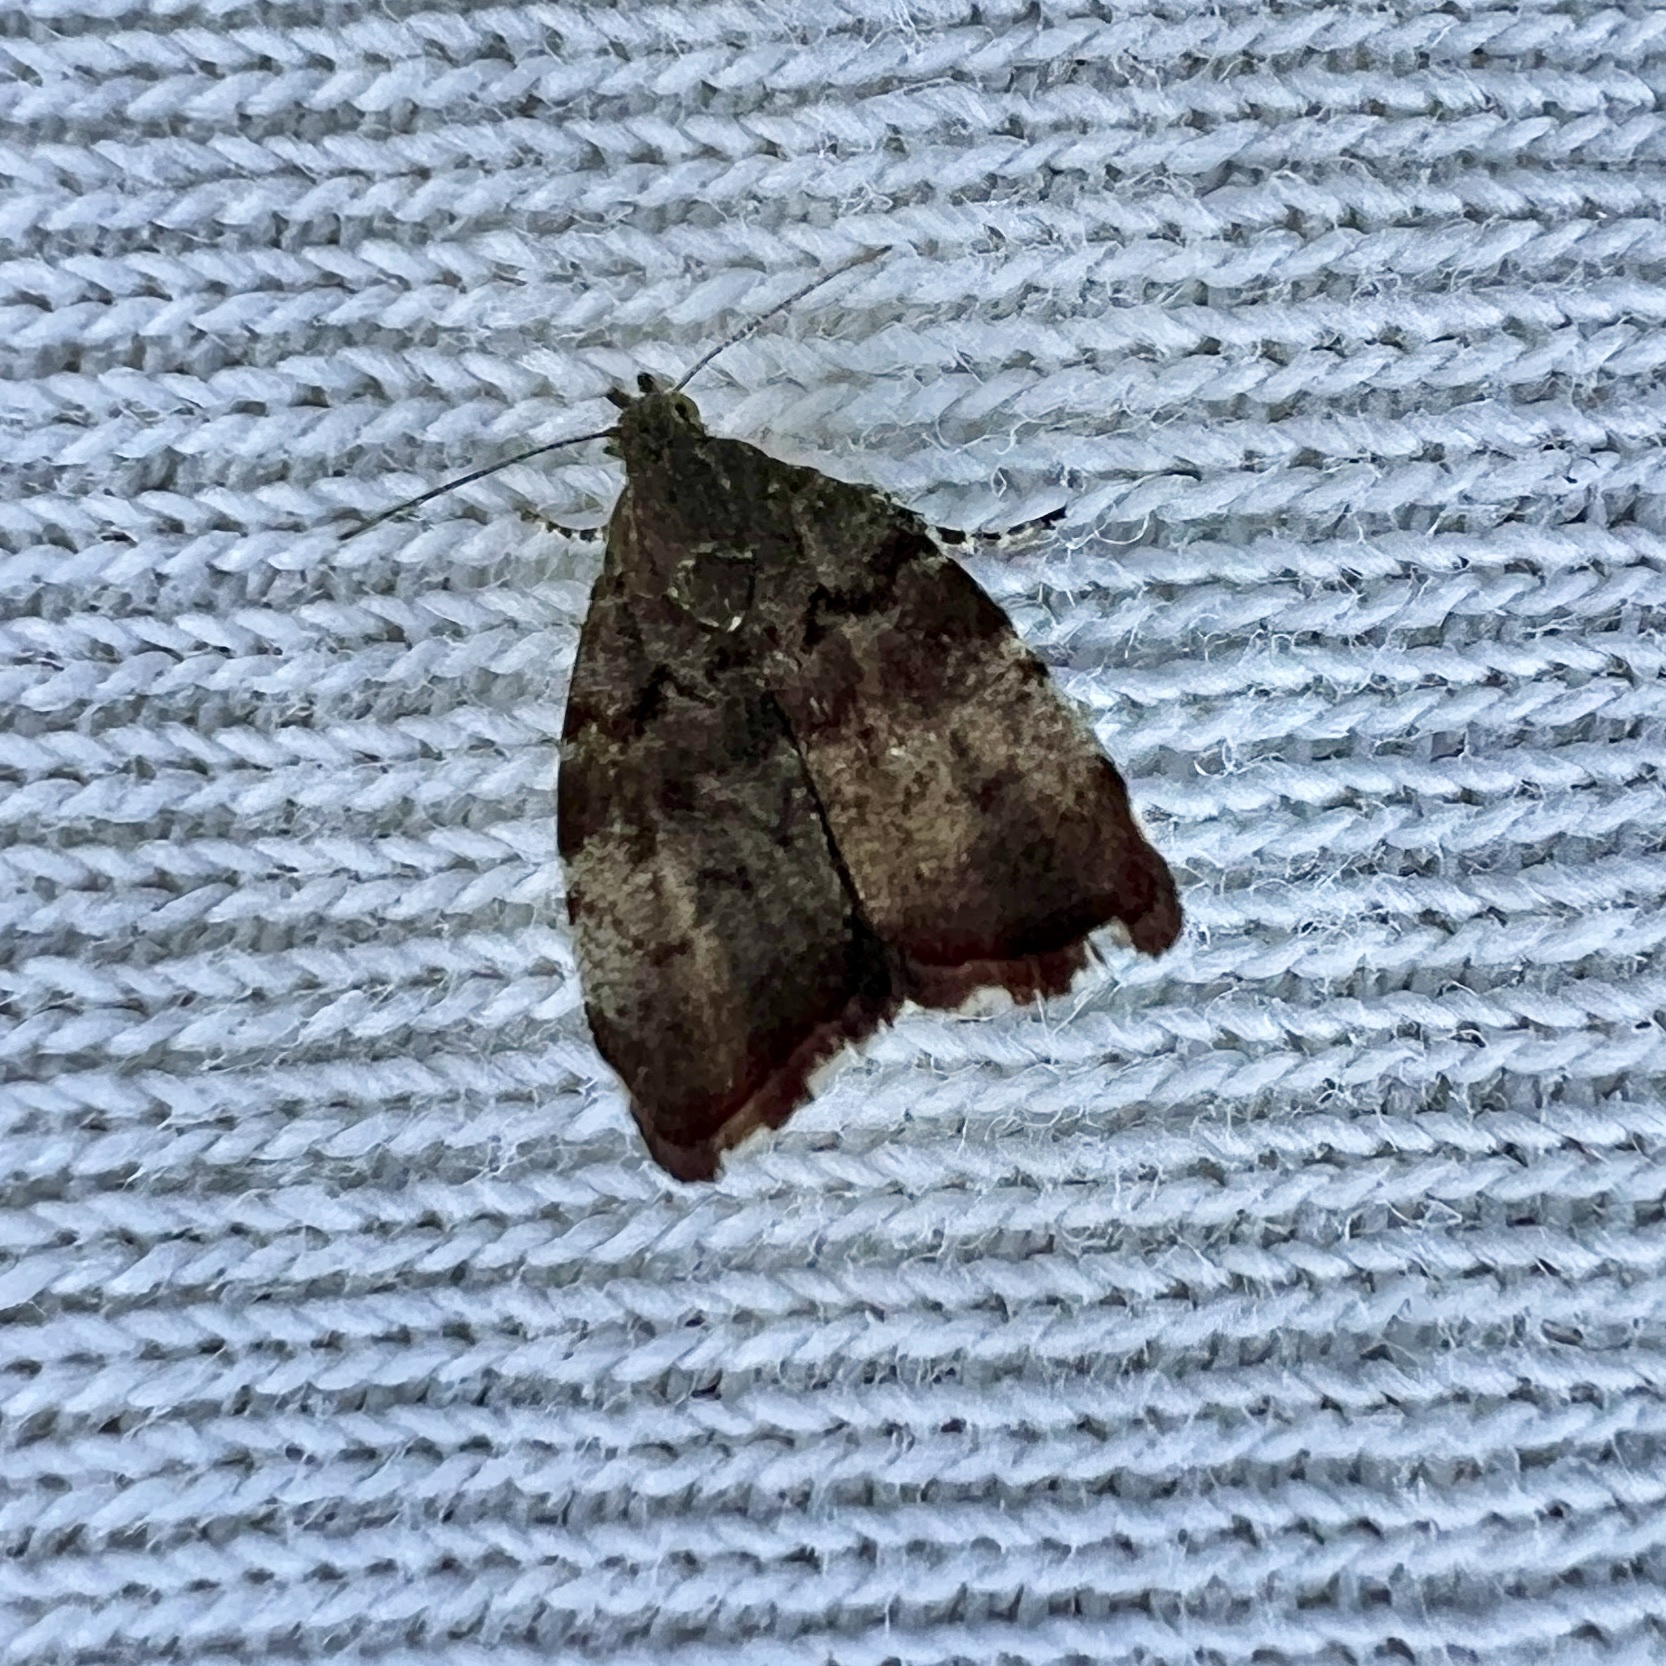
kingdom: Animalia
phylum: Arthropoda
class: Insecta
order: Lepidoptera
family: Choreutidae
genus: Choreutis
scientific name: Choreutis pariana
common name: Apple leaf skeletoniser
